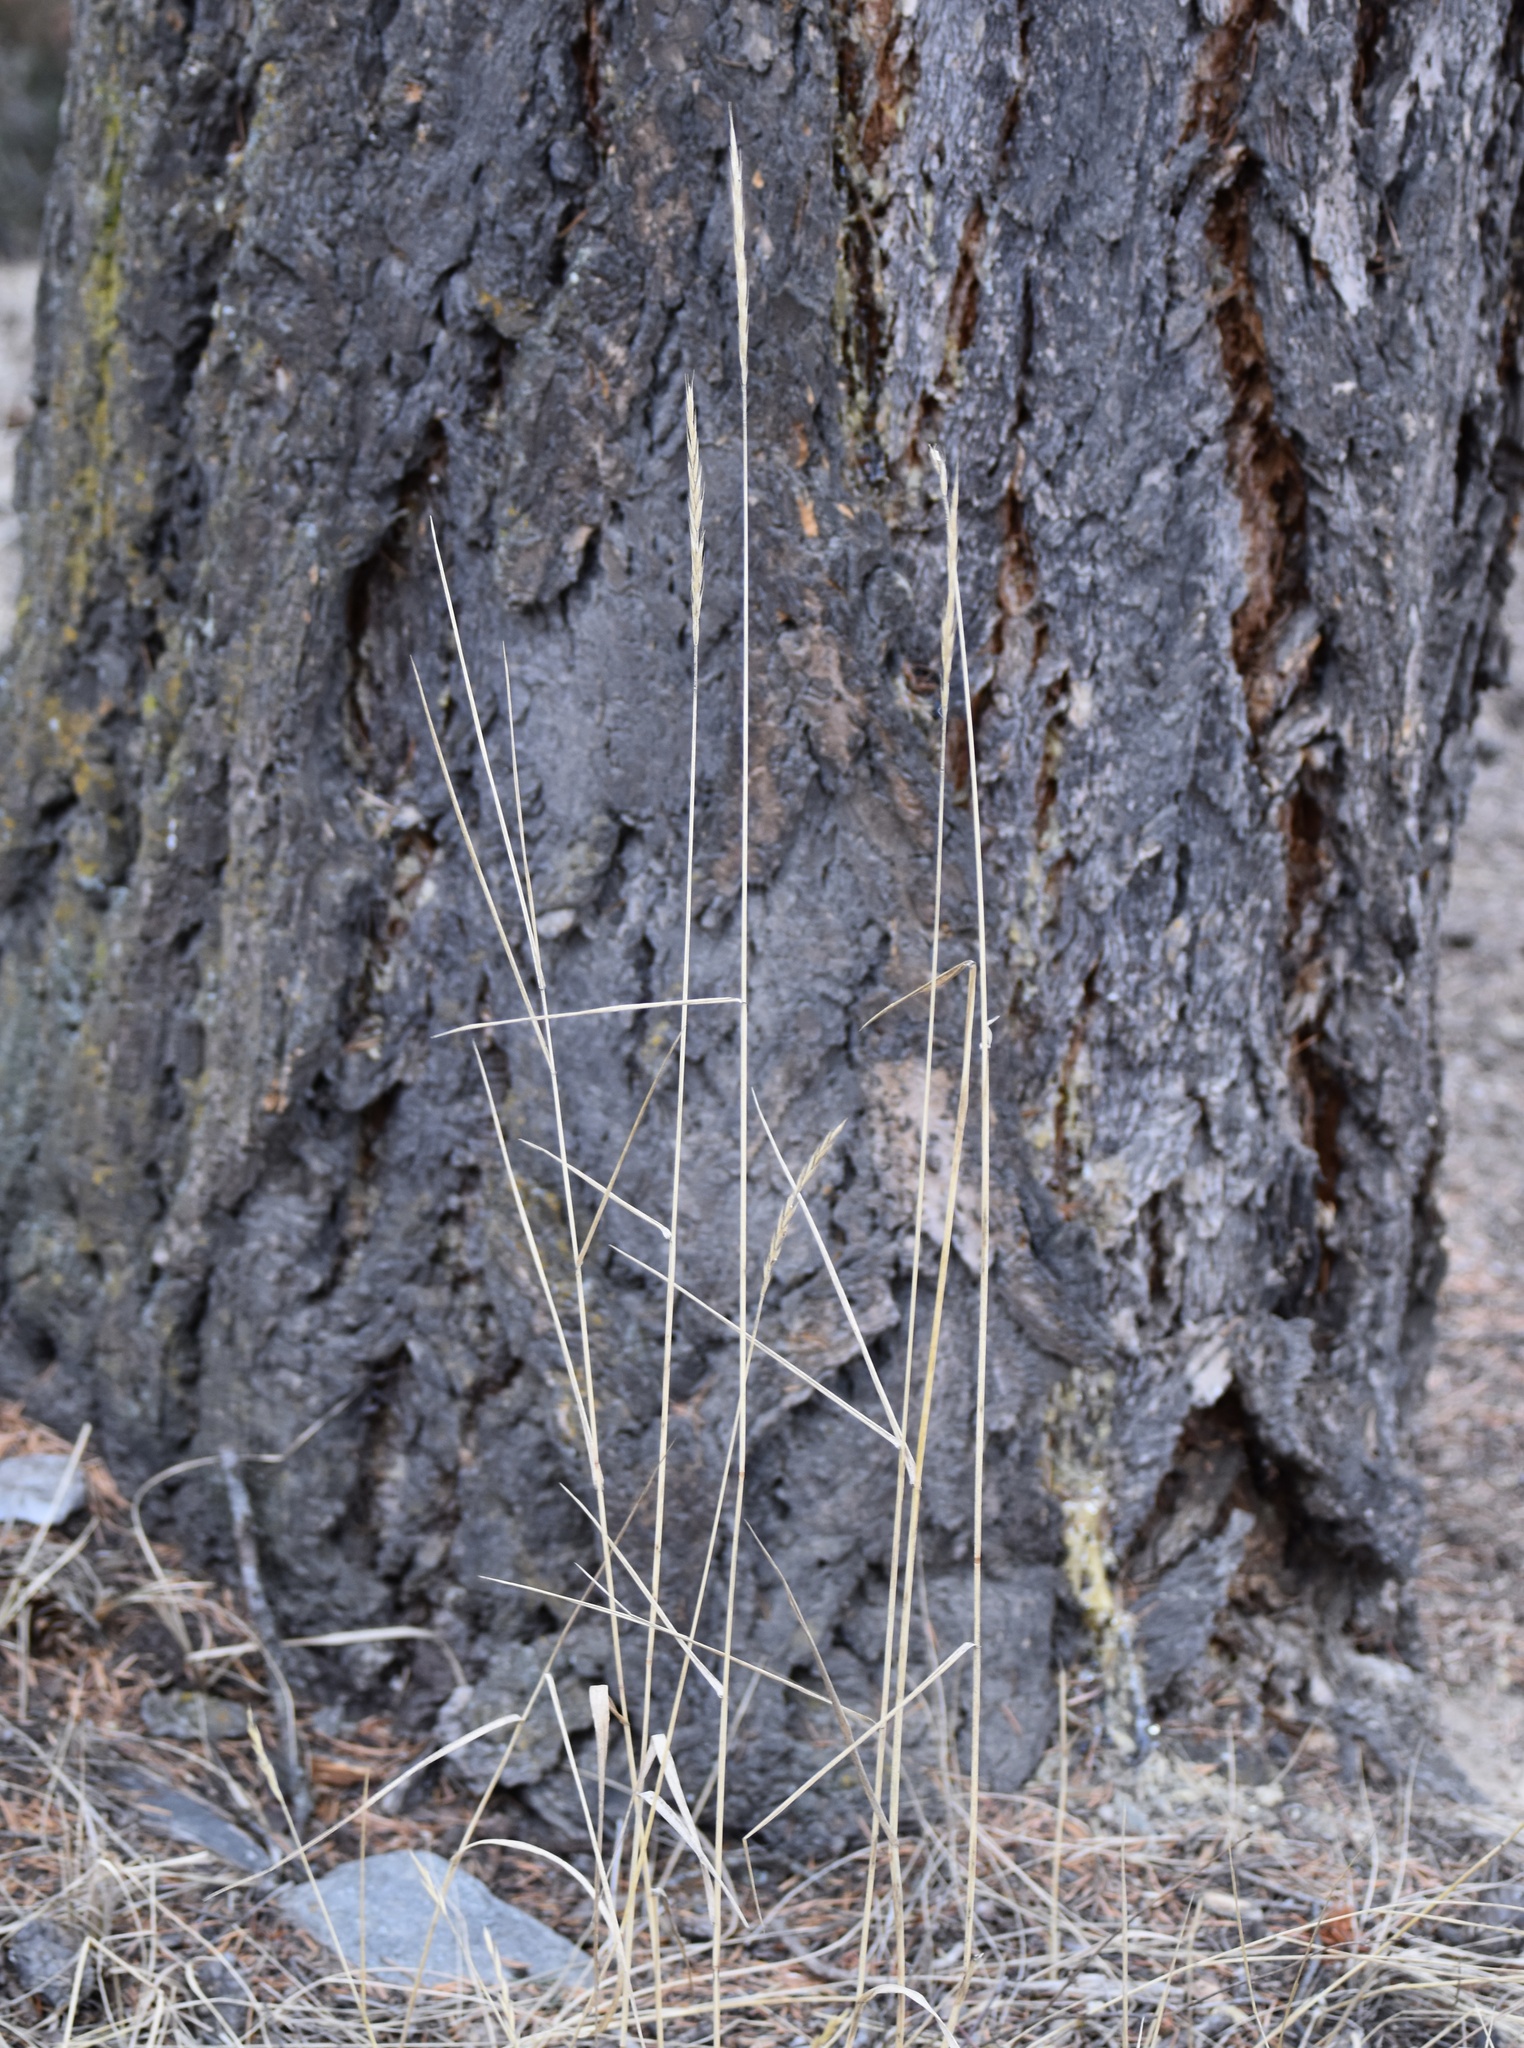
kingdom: Plantae
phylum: Tracheophyta
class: Liliopsida
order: Poales
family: Poaceae
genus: Elymus
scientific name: Elymus violaceus
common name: Arctic wheatgrass
